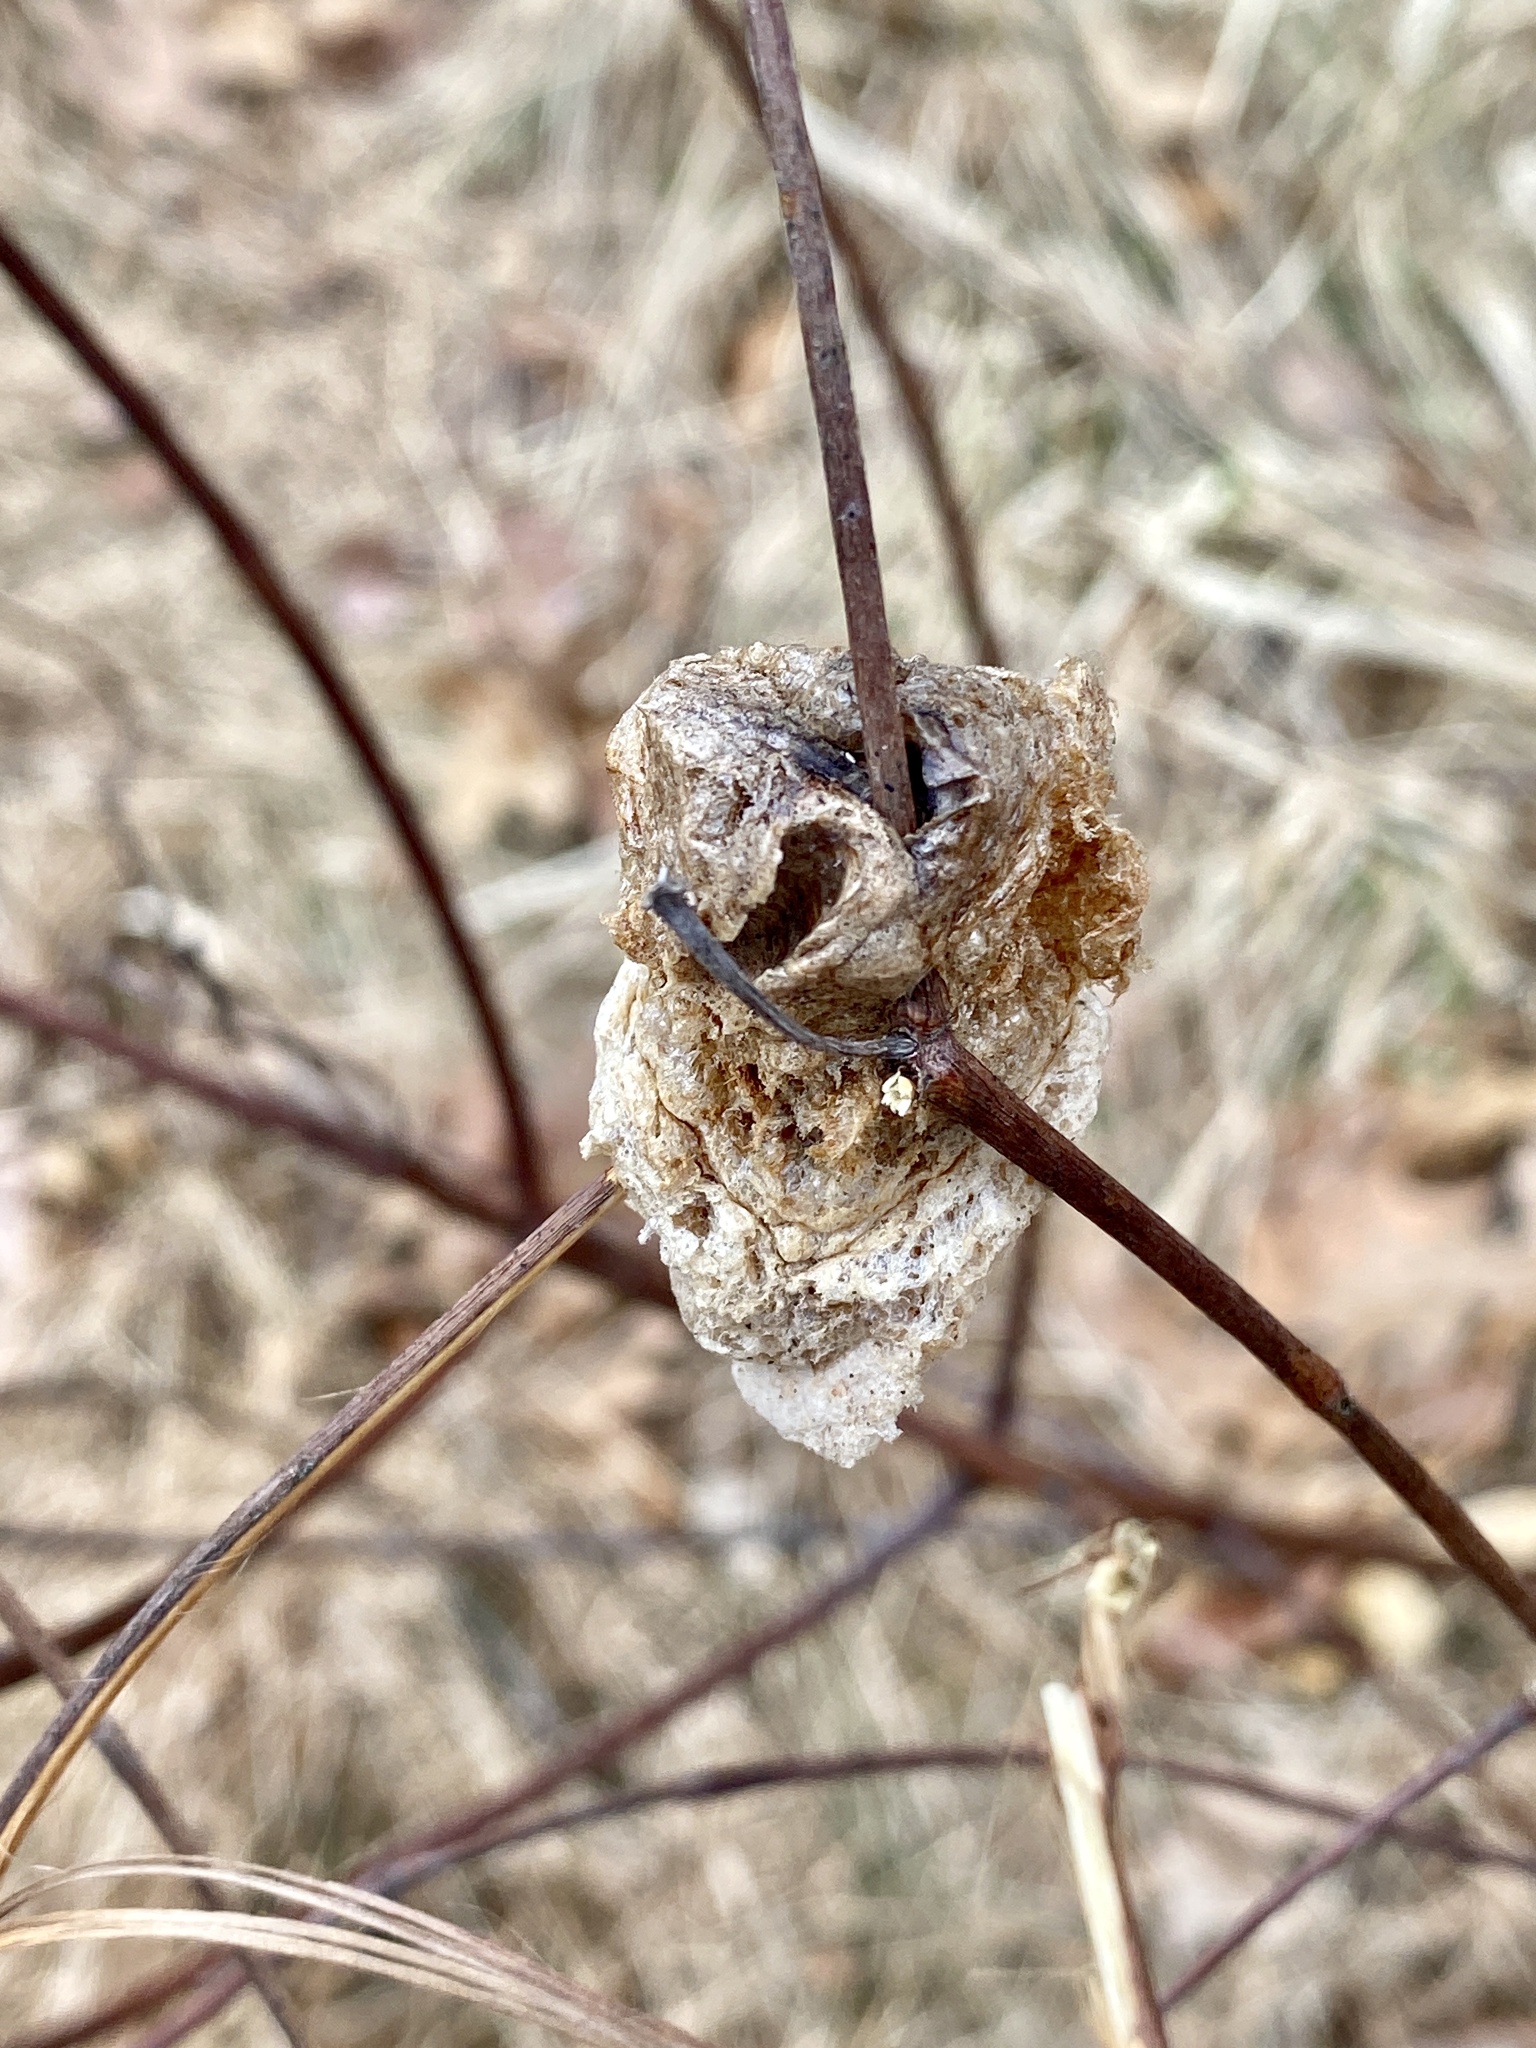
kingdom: Animalia
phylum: Arthropoda
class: Insecta
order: Mantodea
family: Mantidae
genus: Tenodera
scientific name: Tenodera sinensis
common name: Chinese mantis
